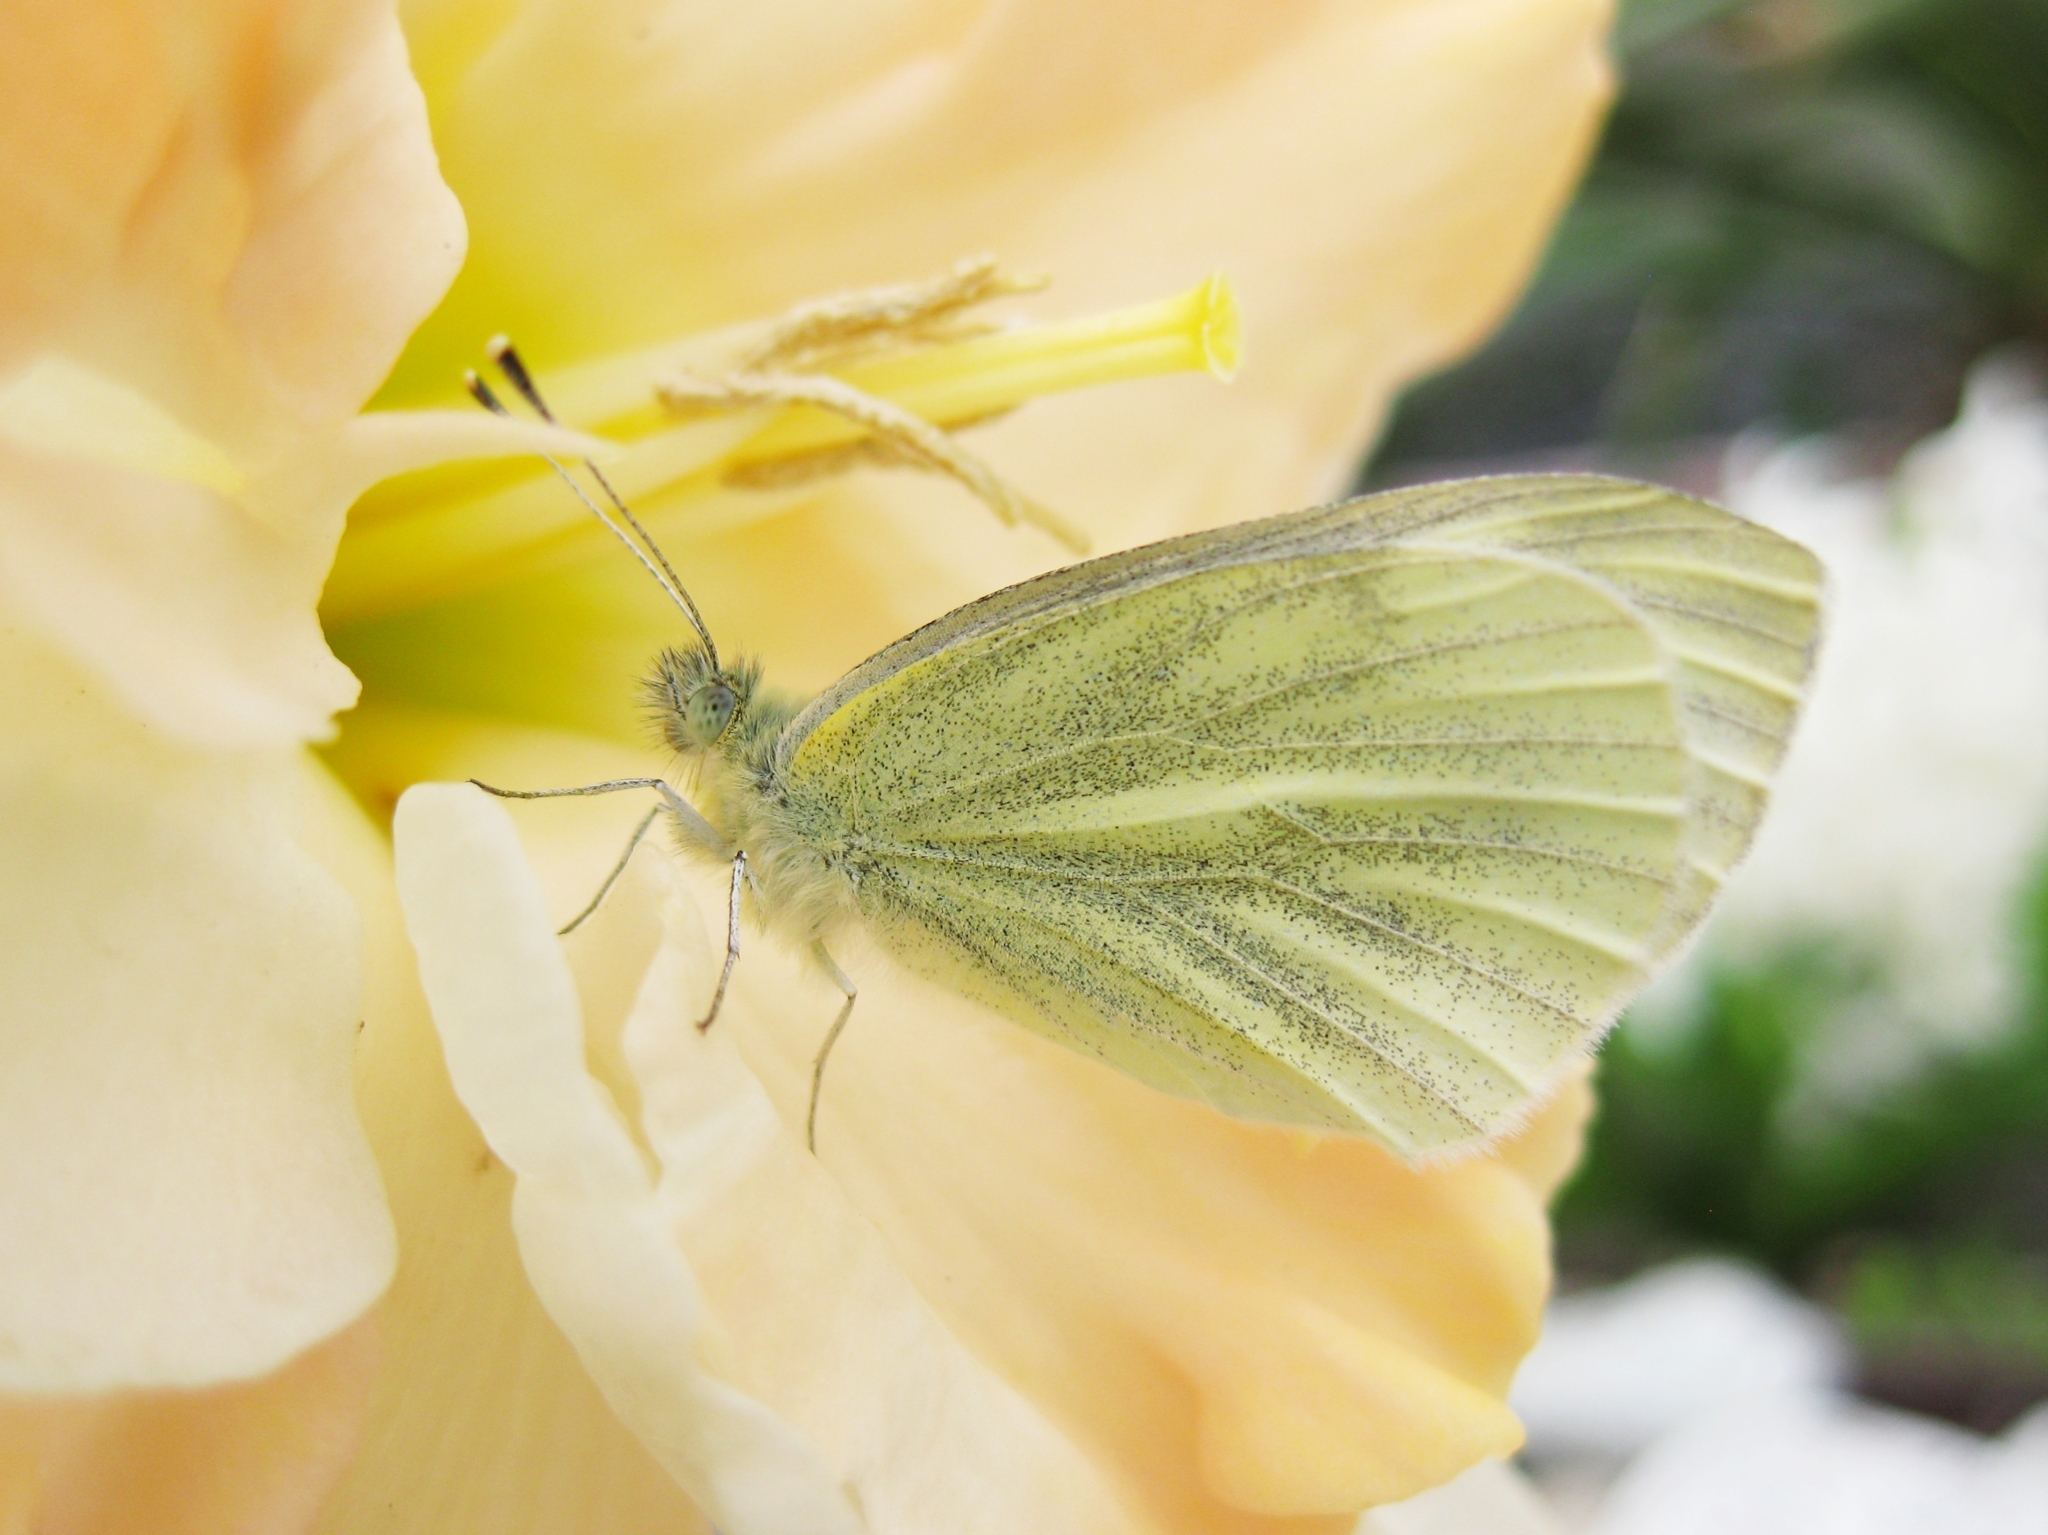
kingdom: Animalia
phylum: Arthropoda
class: Insecta
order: Lepidoptera
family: Pieridae
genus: Pieris
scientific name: Pieris napi
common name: Green-veined white
